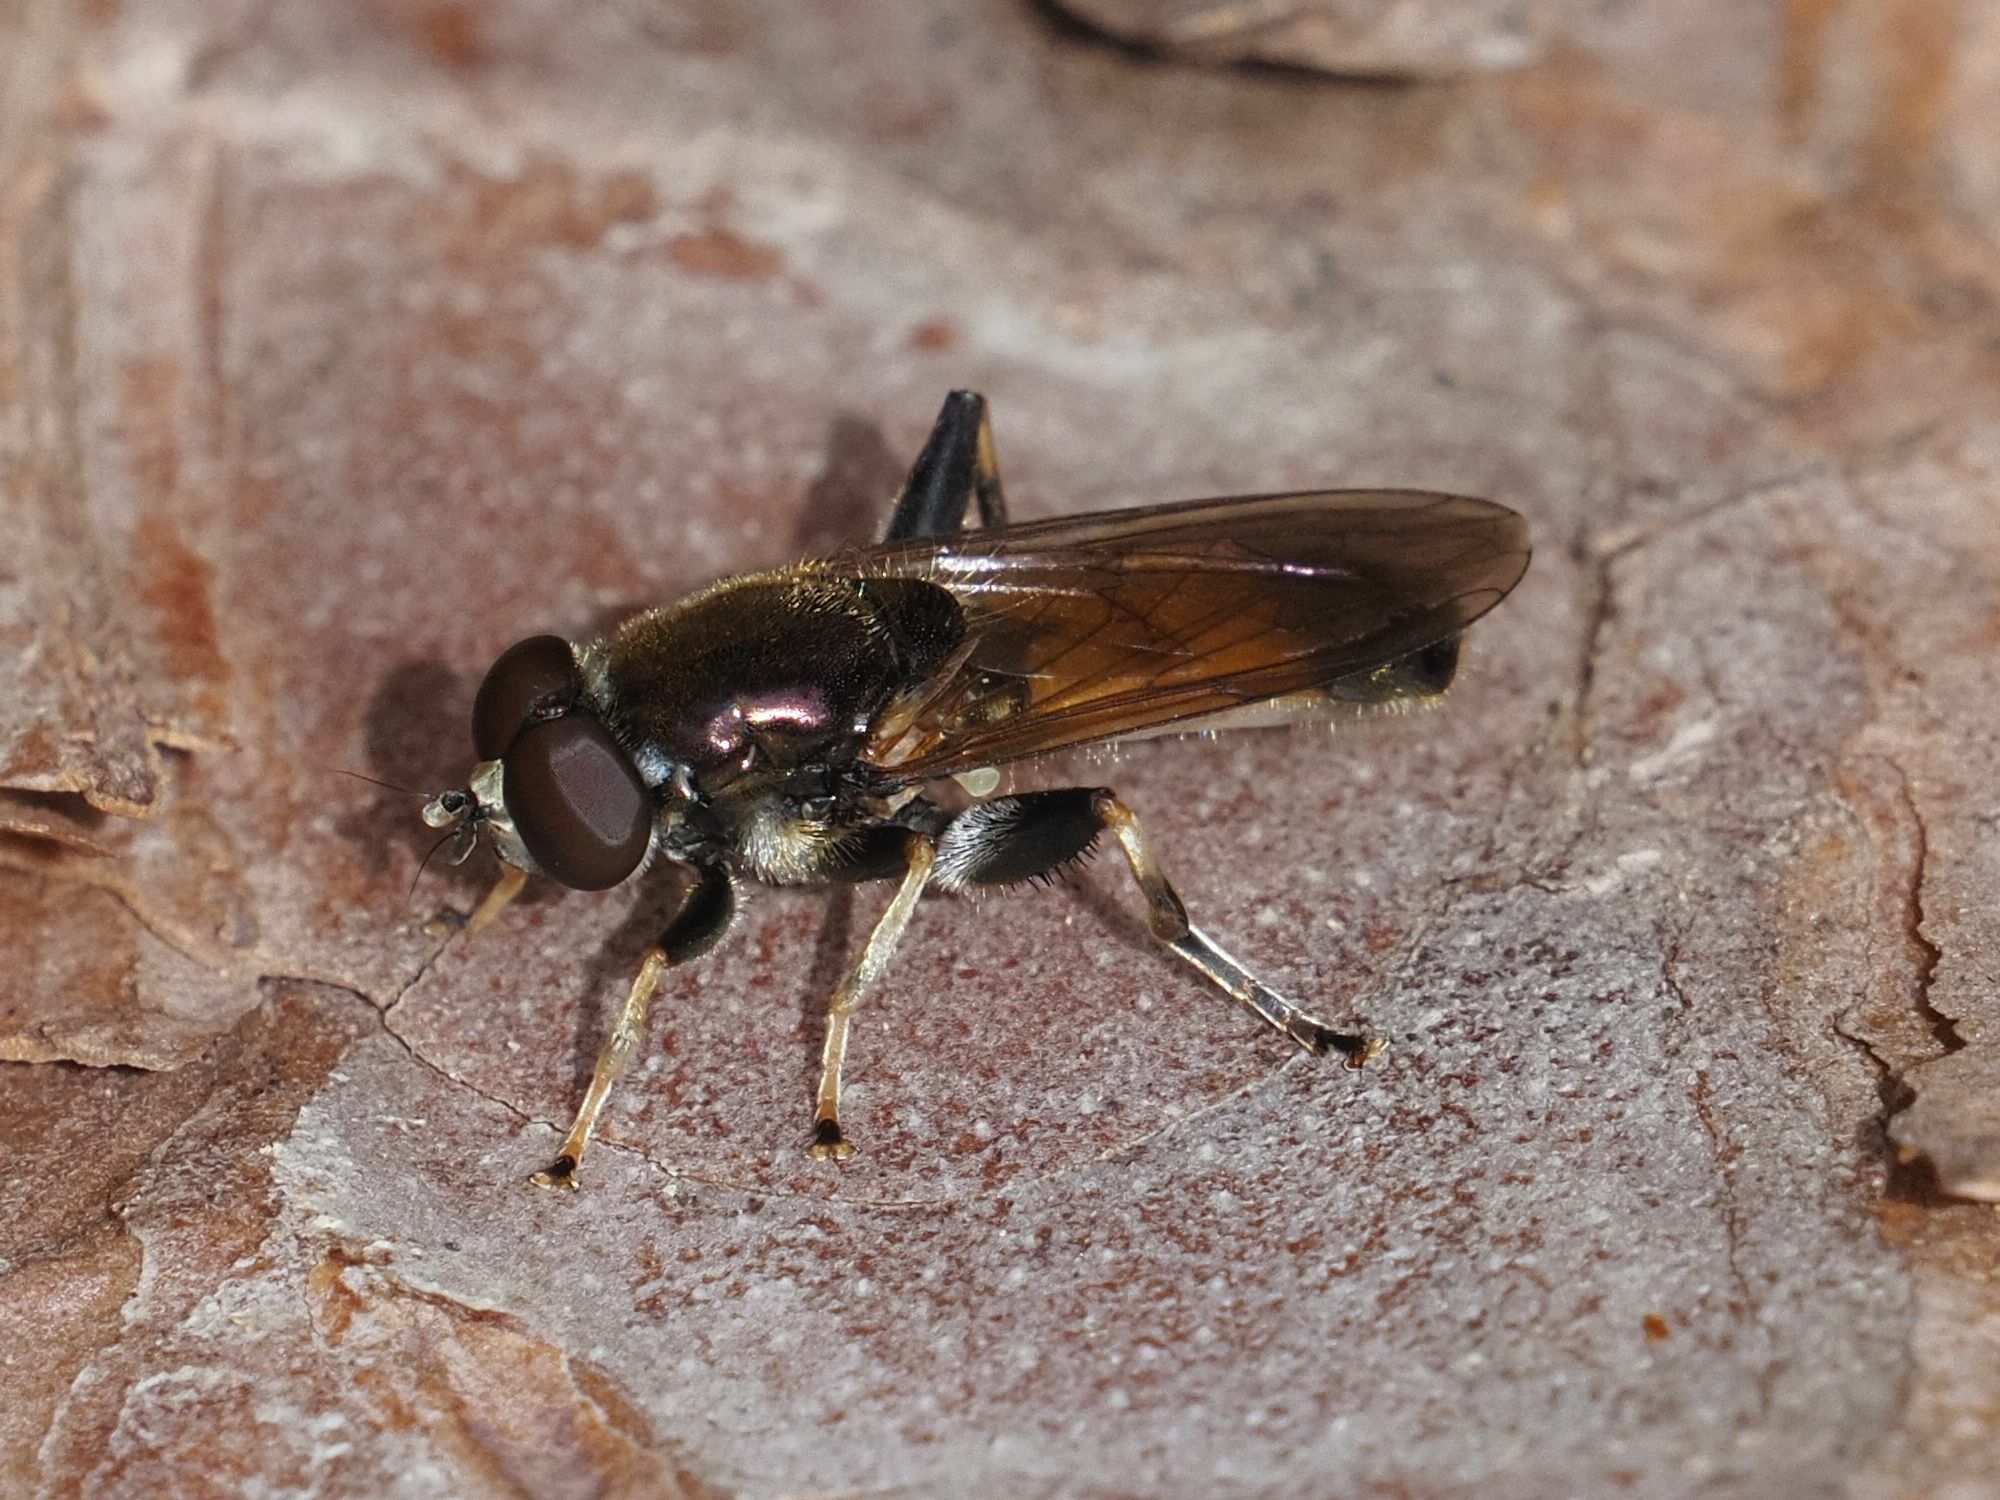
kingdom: Animalia
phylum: Arthropoda
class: Insecta
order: Diptera
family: Syrphidae
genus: Xylota
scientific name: Xylota segnis
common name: Brown-toed forest fly
